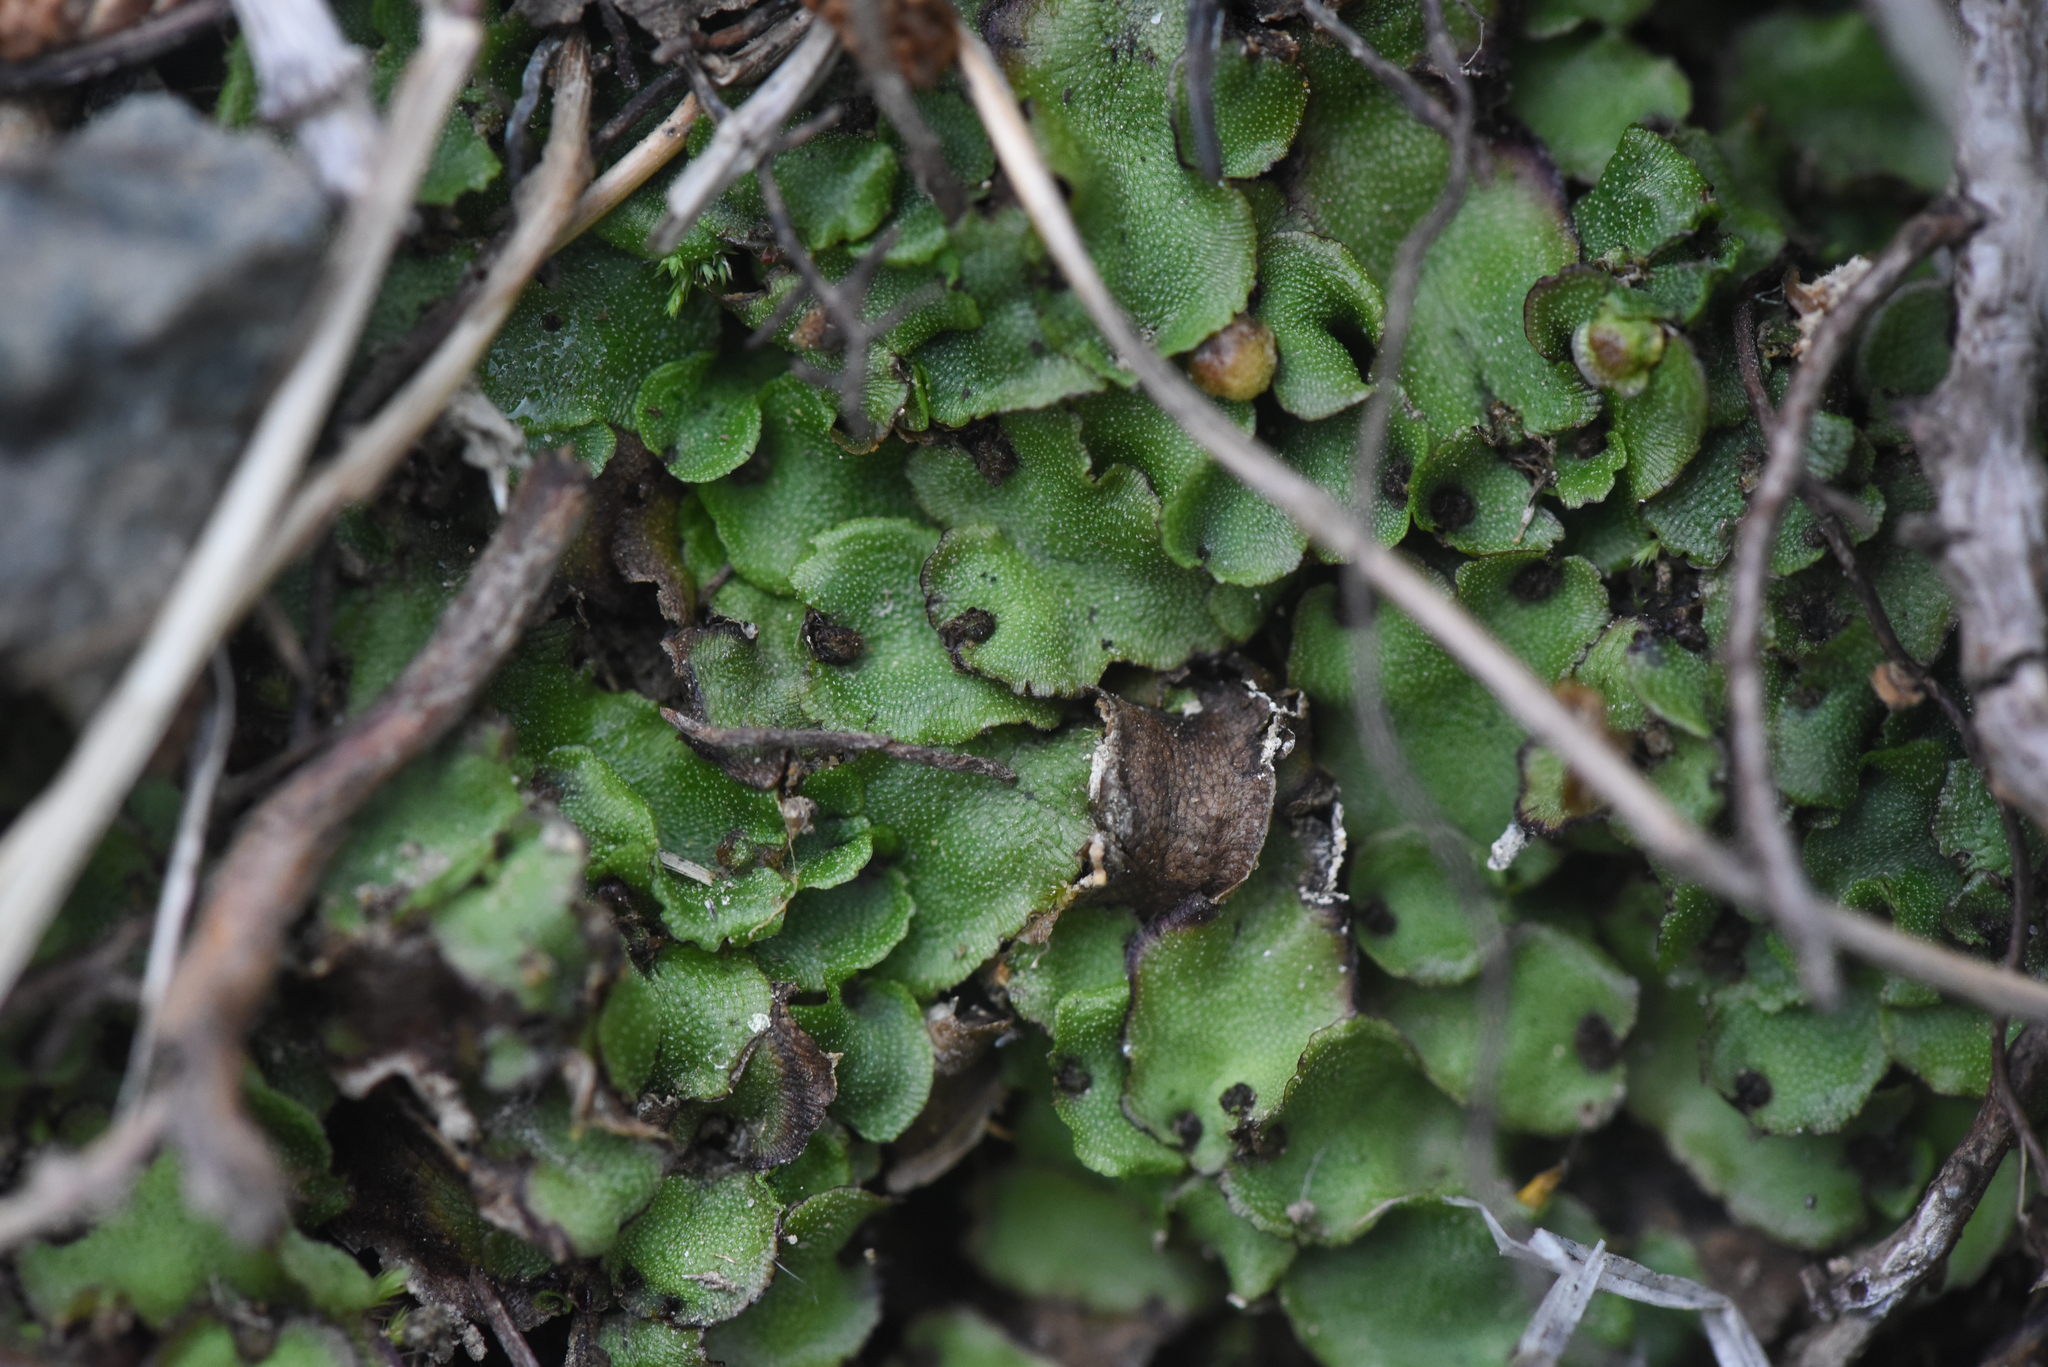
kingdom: Plantae
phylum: Marchantiophyta
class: Marchantiopsida
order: Marchantiales
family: Marchantiaceae
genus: Marchantia
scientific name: Marchantia quadrata
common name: Narrow mushroom-headed liverwort
